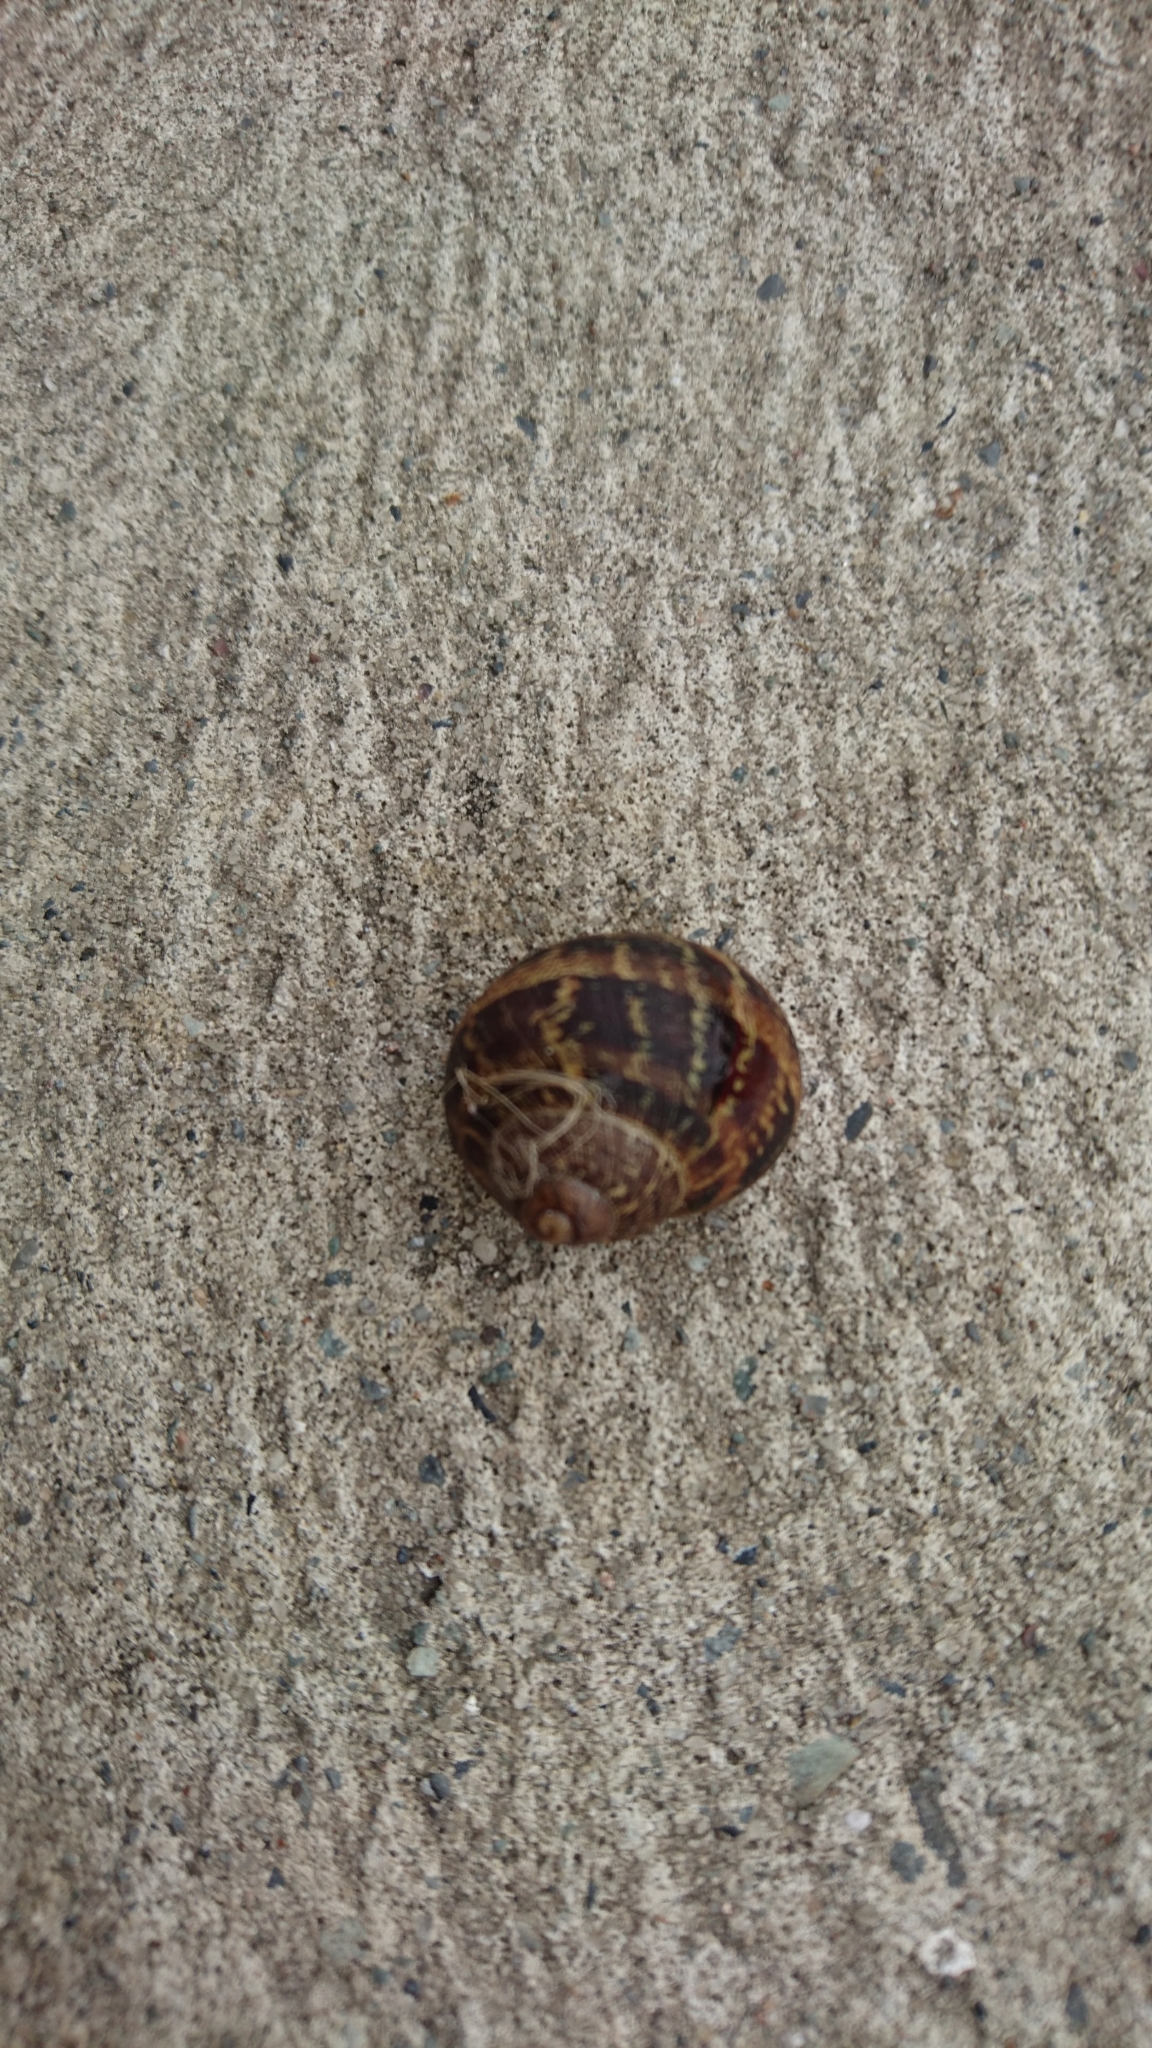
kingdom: Animalia
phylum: Mollusca
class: Gastropoda
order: Stylommatophora
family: Helicidae
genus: Cornu
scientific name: Cornu aspersum
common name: Brown garden snail
